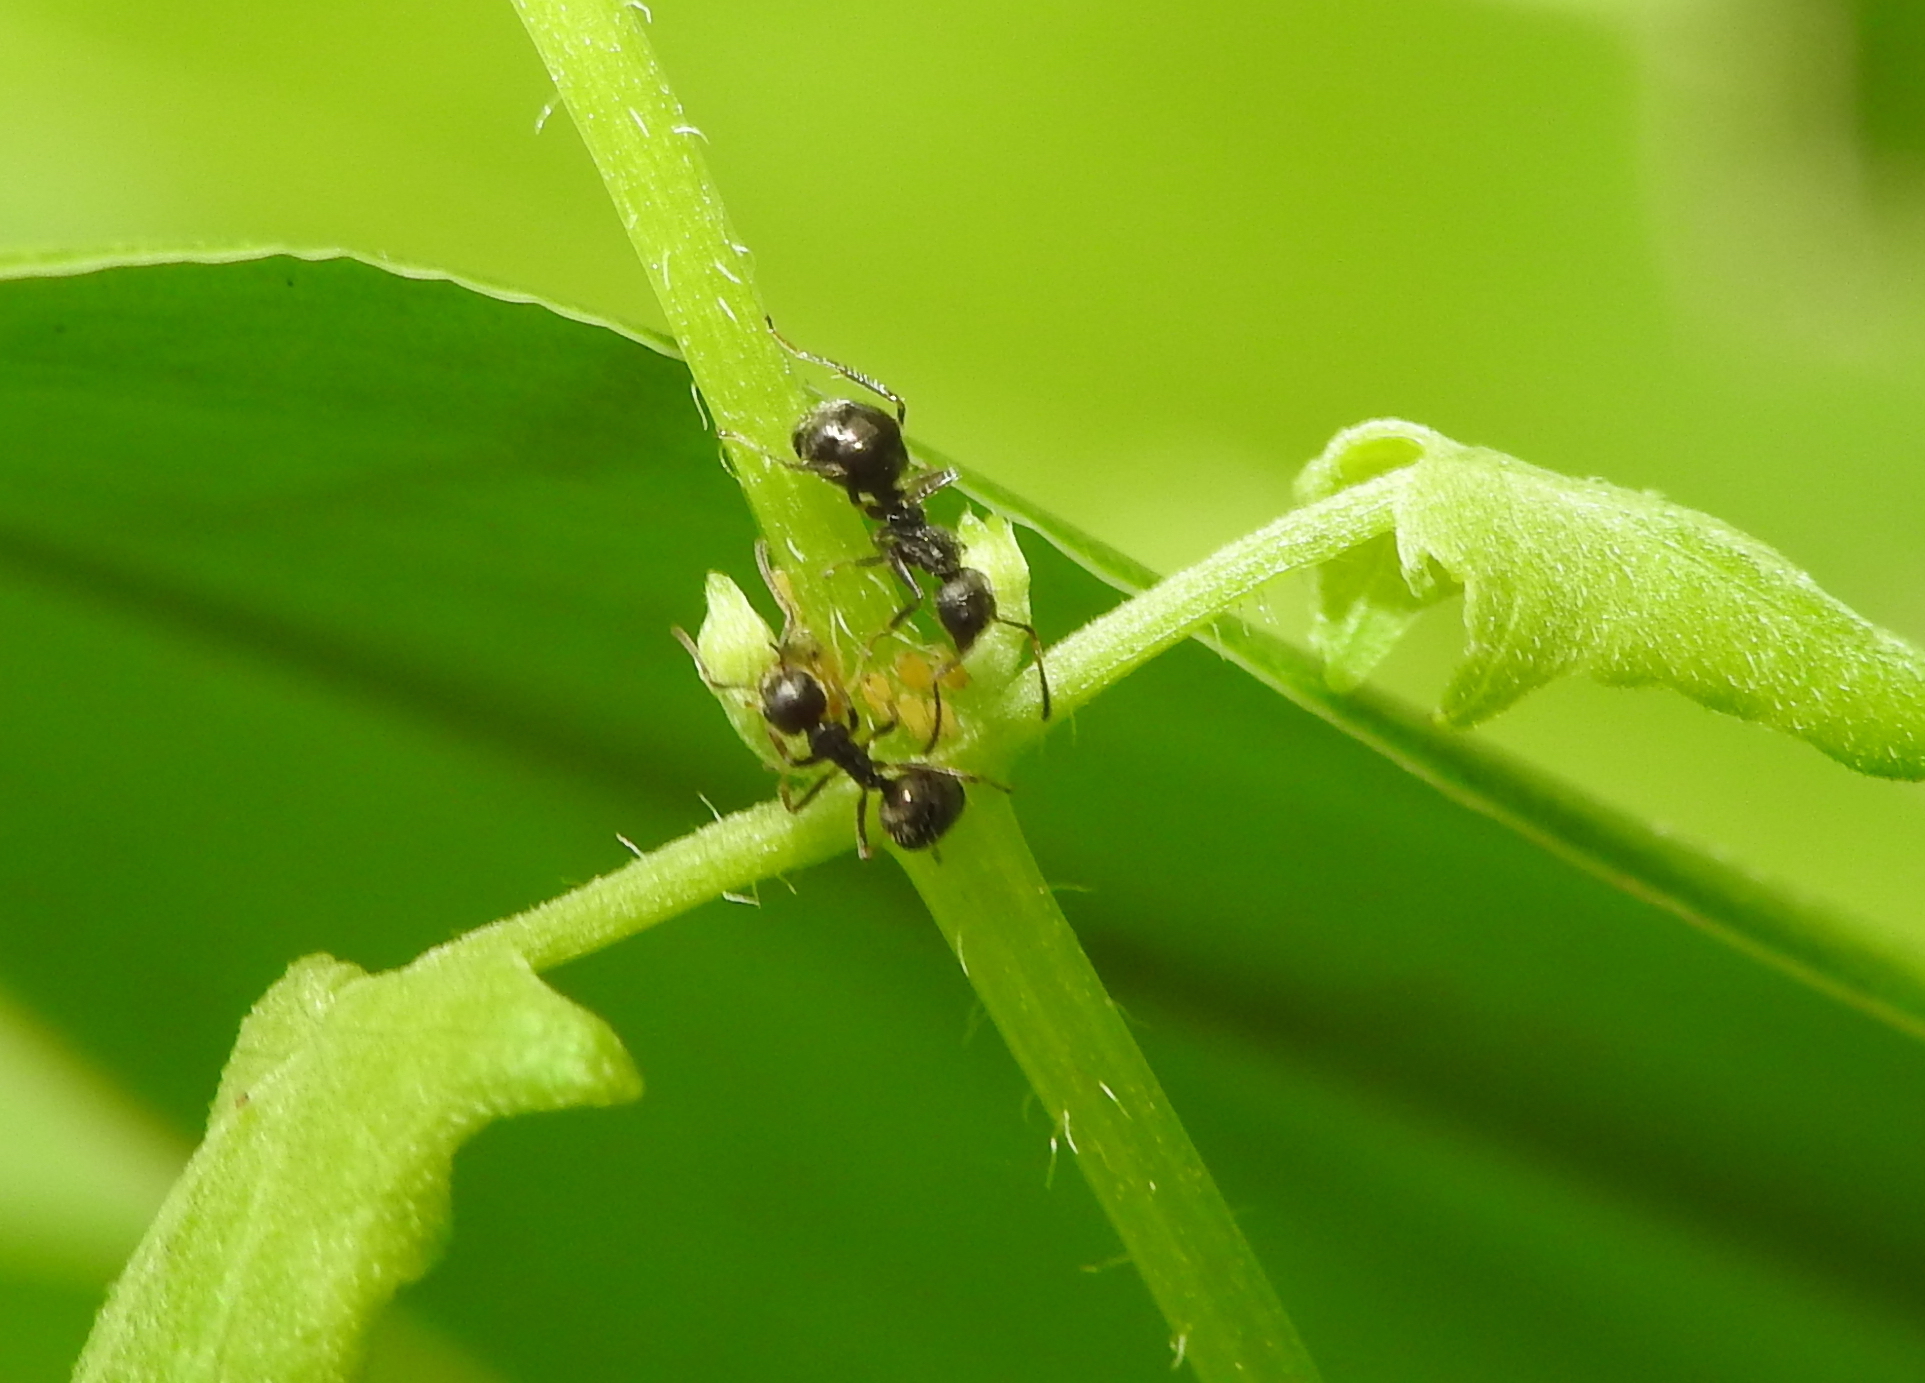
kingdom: Animalia
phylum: Arthropoda
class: Insecta
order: Hymenoptera
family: Formicidae
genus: Dolichoderus
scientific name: Dolichoderus thoracicus
